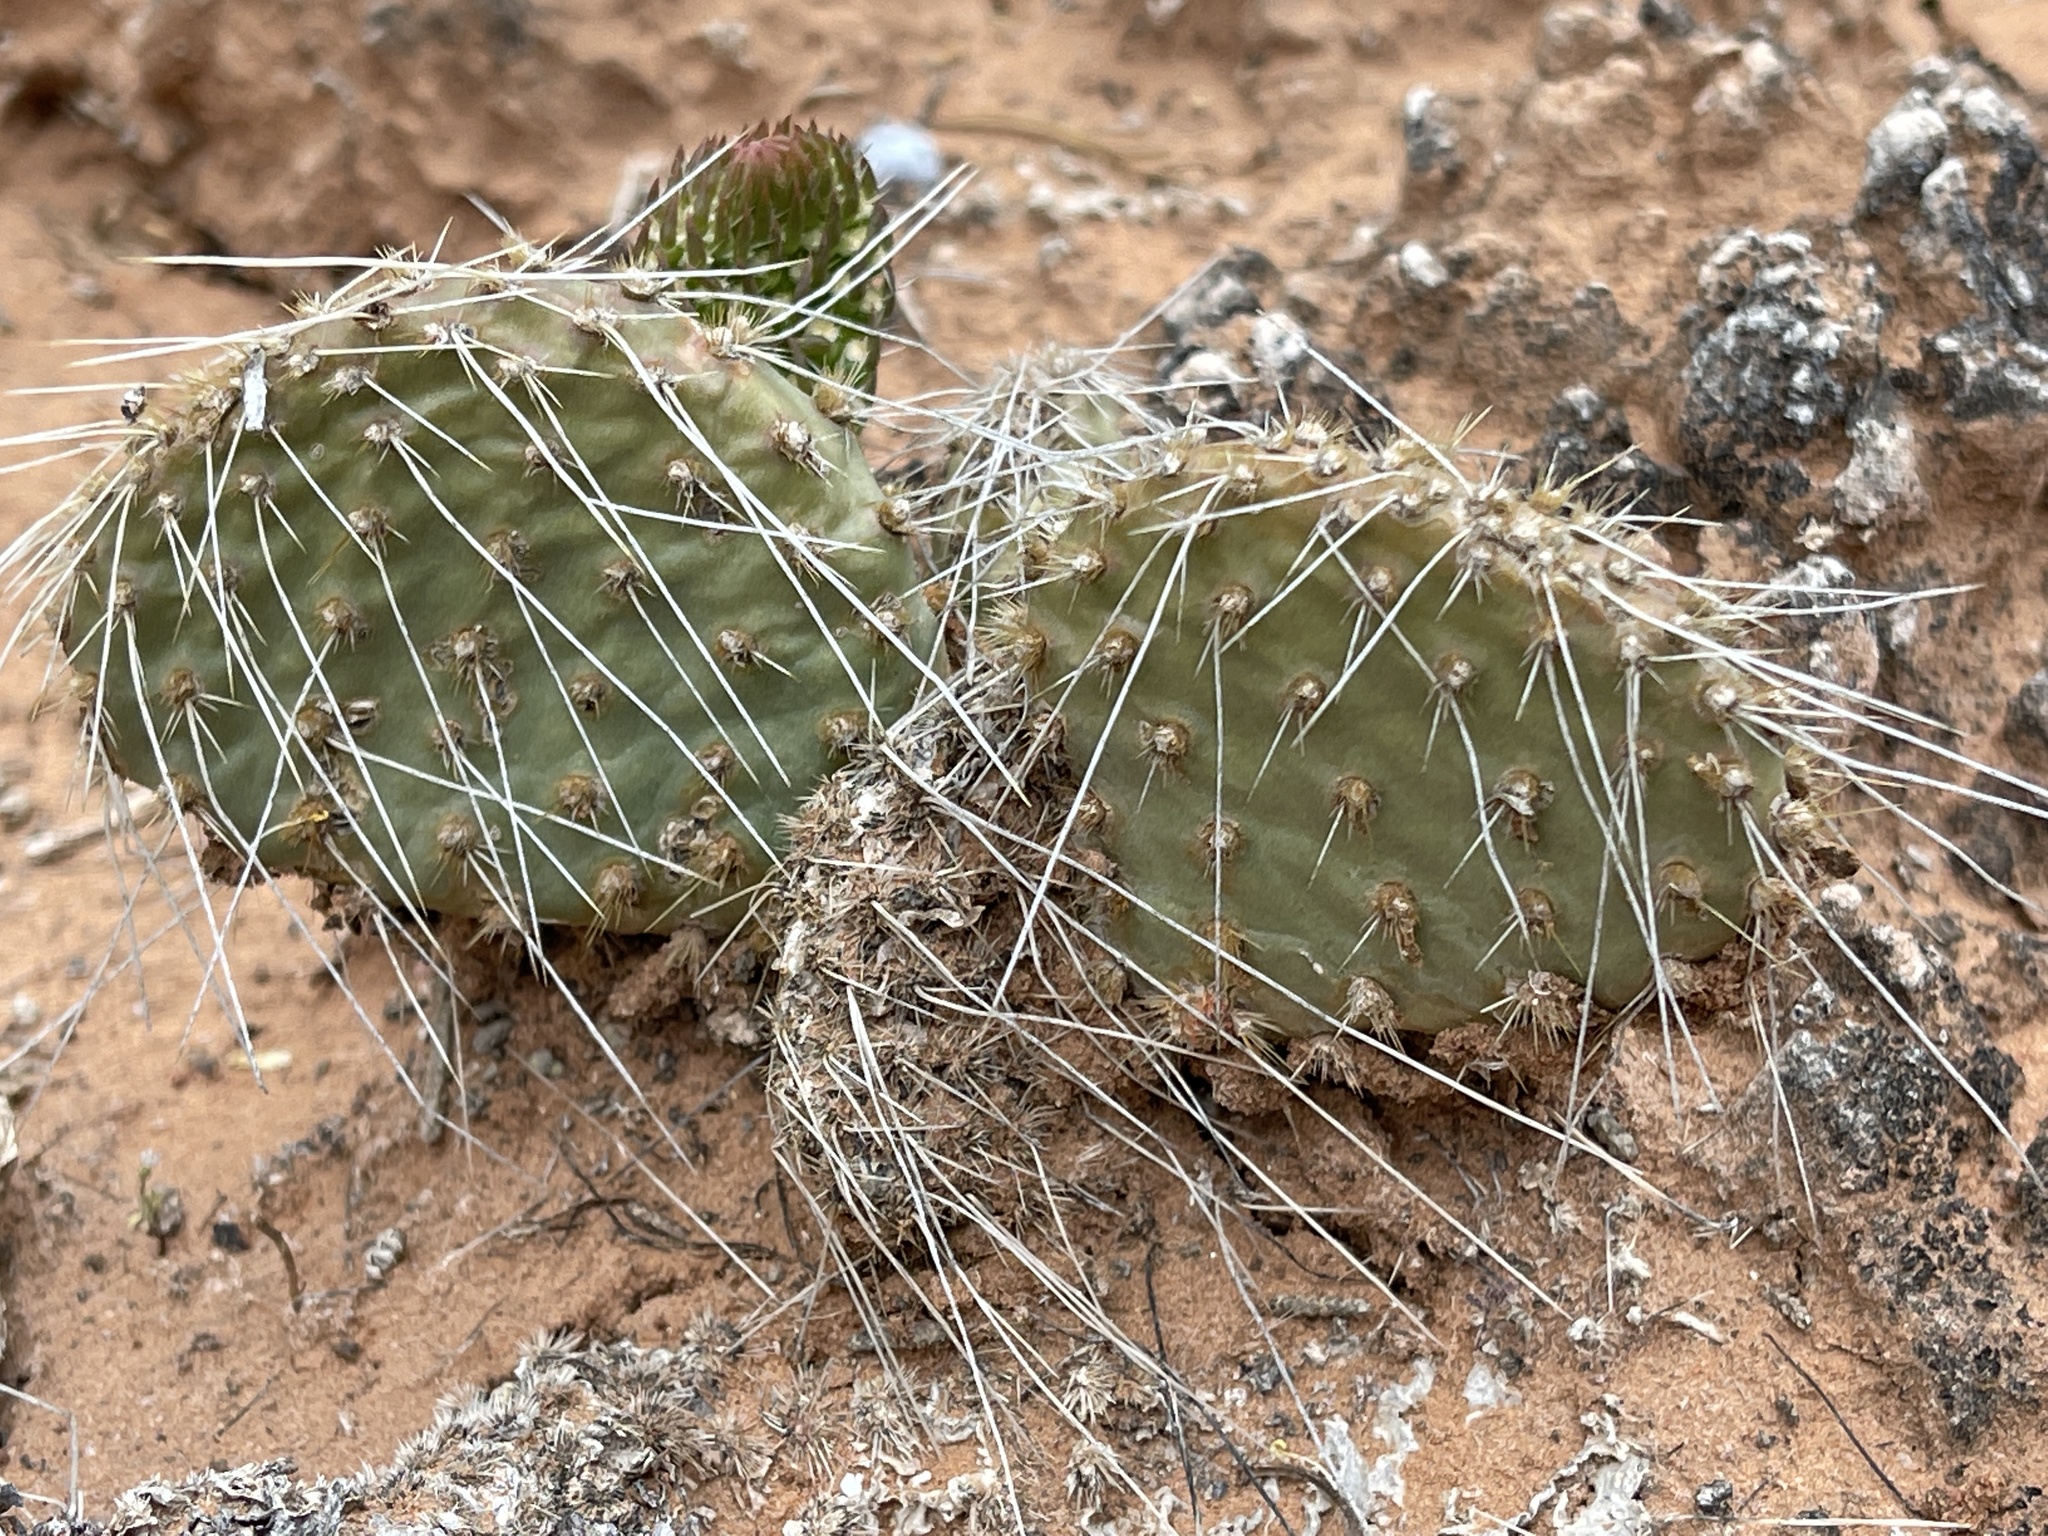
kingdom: Plantae
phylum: Tracheophyta
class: Magnoliopsida
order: Caryophyllales
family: Cactaceae
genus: Opuntia
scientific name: Opuntia polyacantha
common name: Plains prickly-pear
